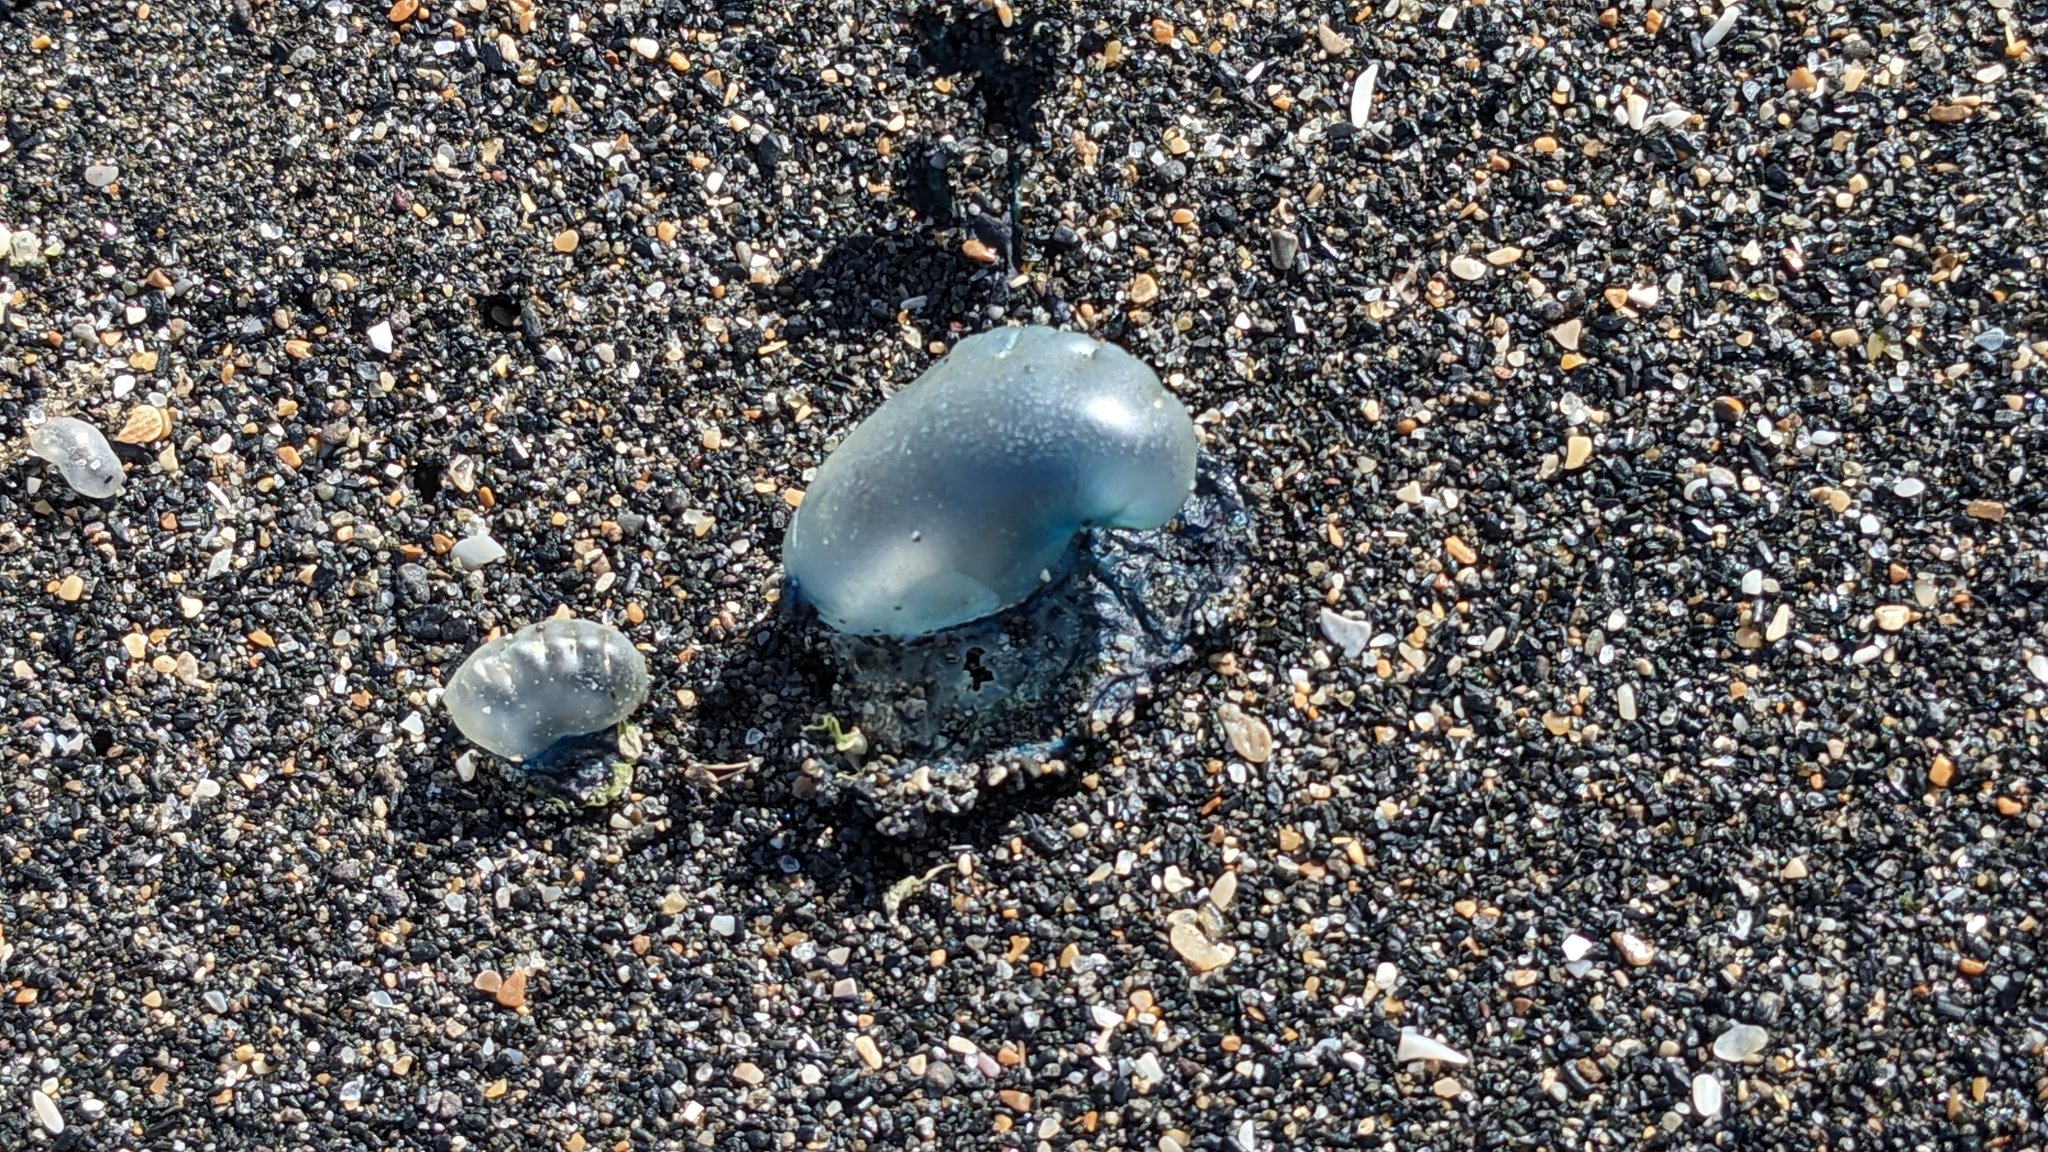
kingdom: Animalia
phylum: Cnidaria
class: Hydrozoa
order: Siphonophorae
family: Physaliidae
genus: Physalia
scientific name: Physalia physalis
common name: Portuguese man-of-war
